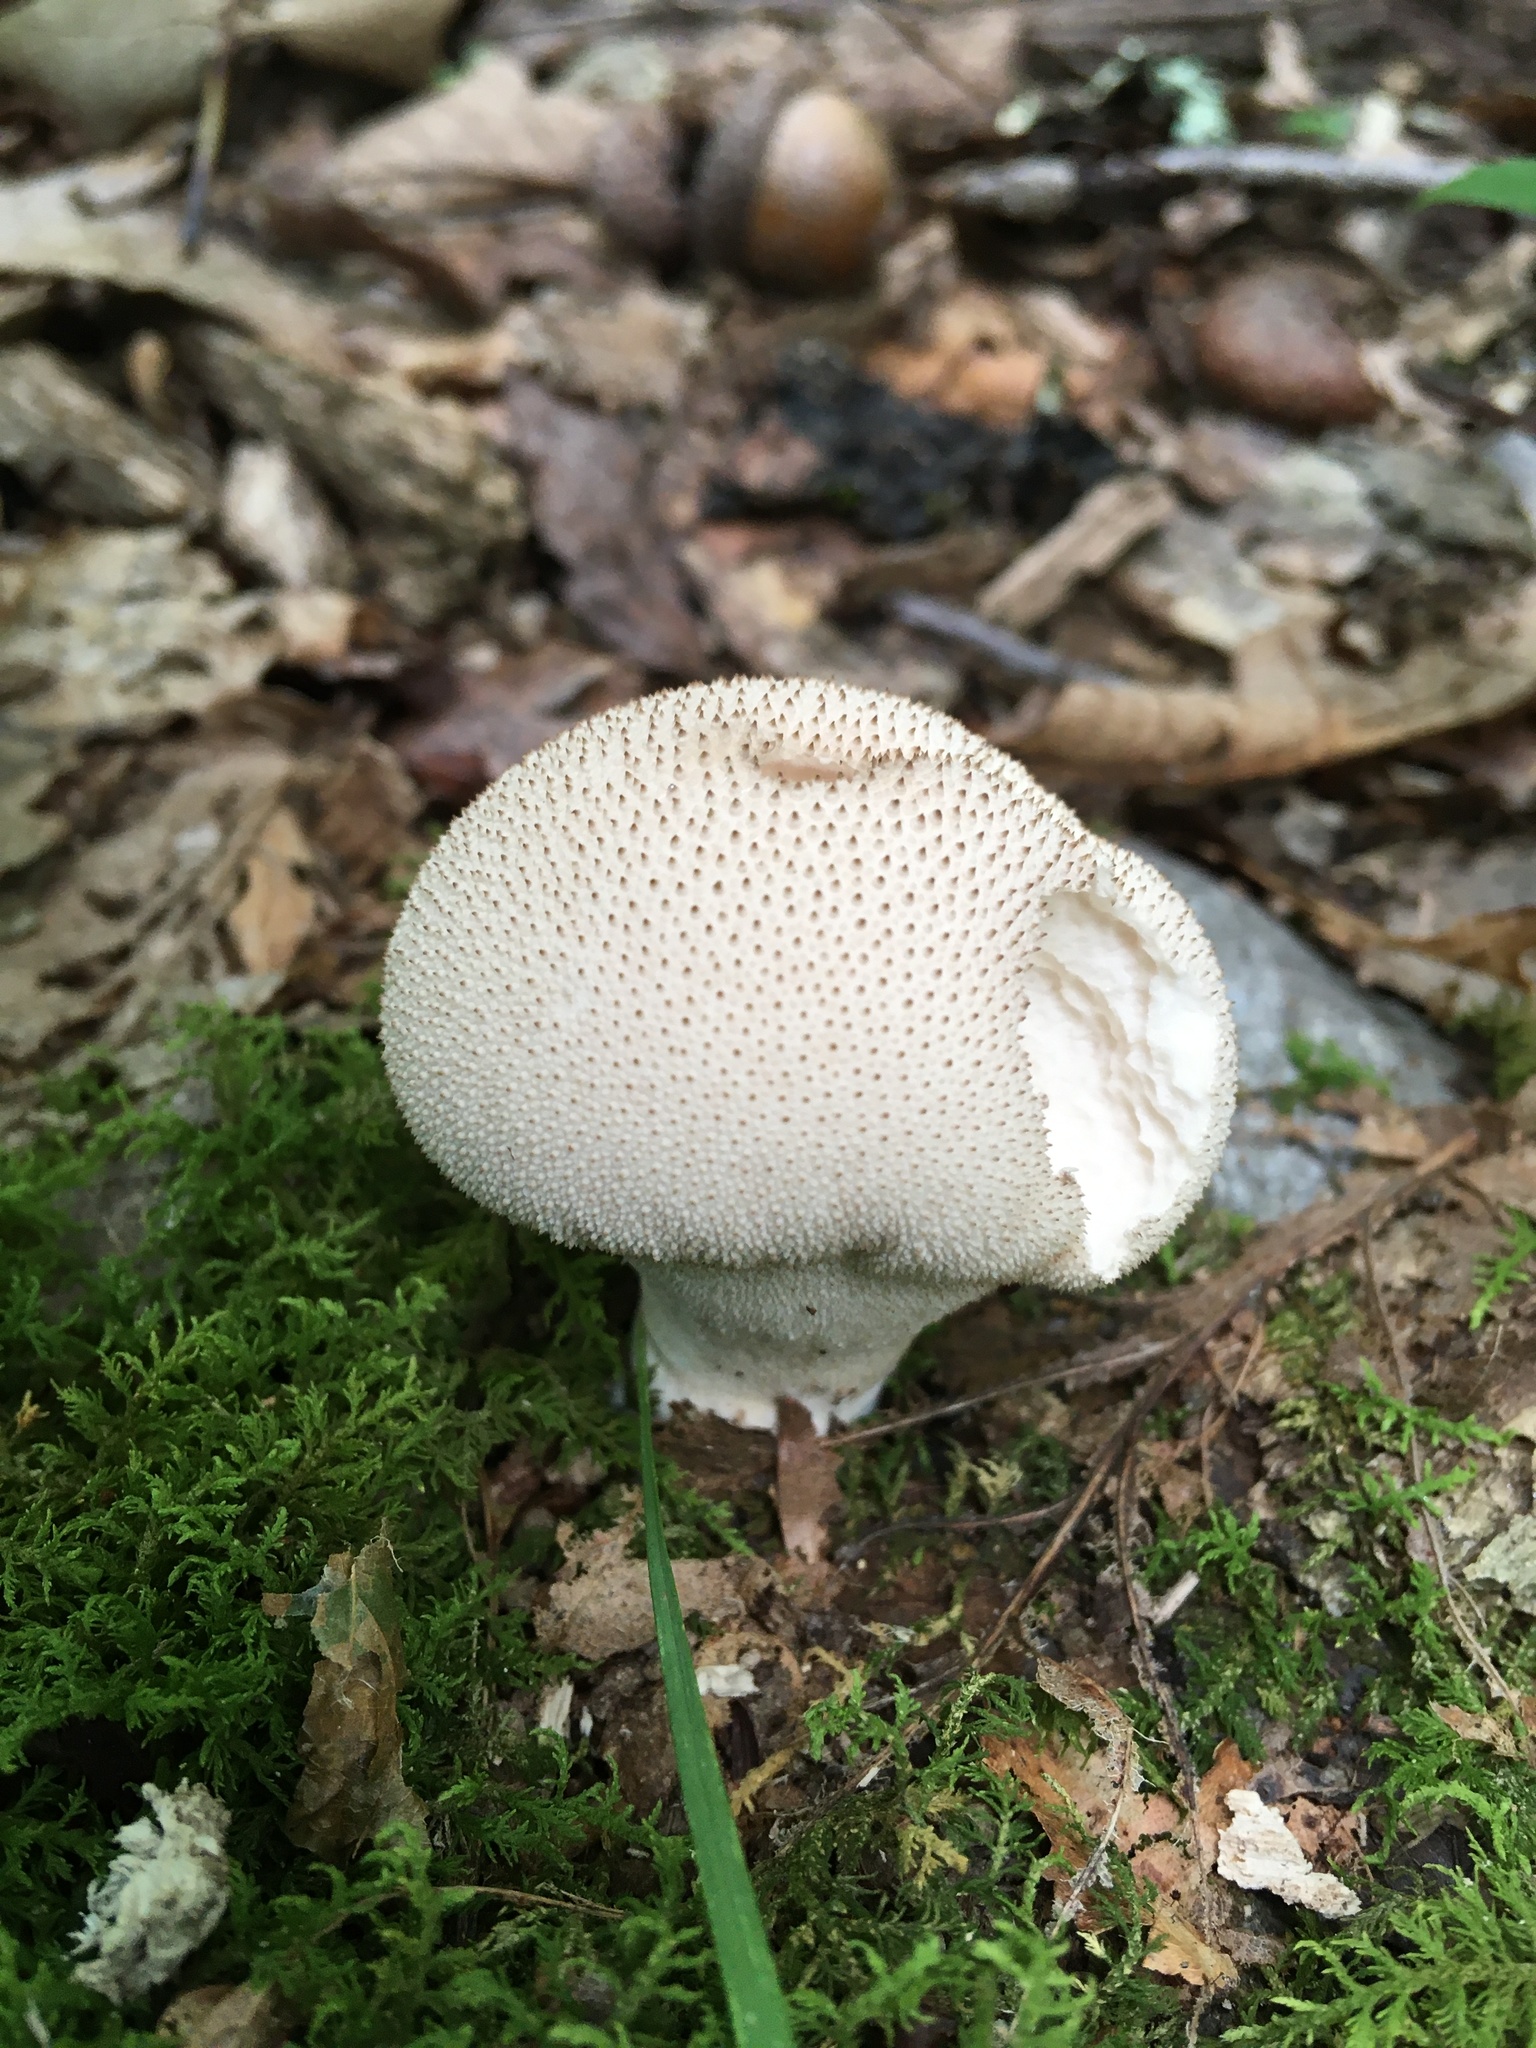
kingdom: Fungi
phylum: Basidiomycota
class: Agaricomycetes
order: Agaricales
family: Lycoperdaceae
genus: Lycoperdon
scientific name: Lycoperdon perlatum
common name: Common puffball
